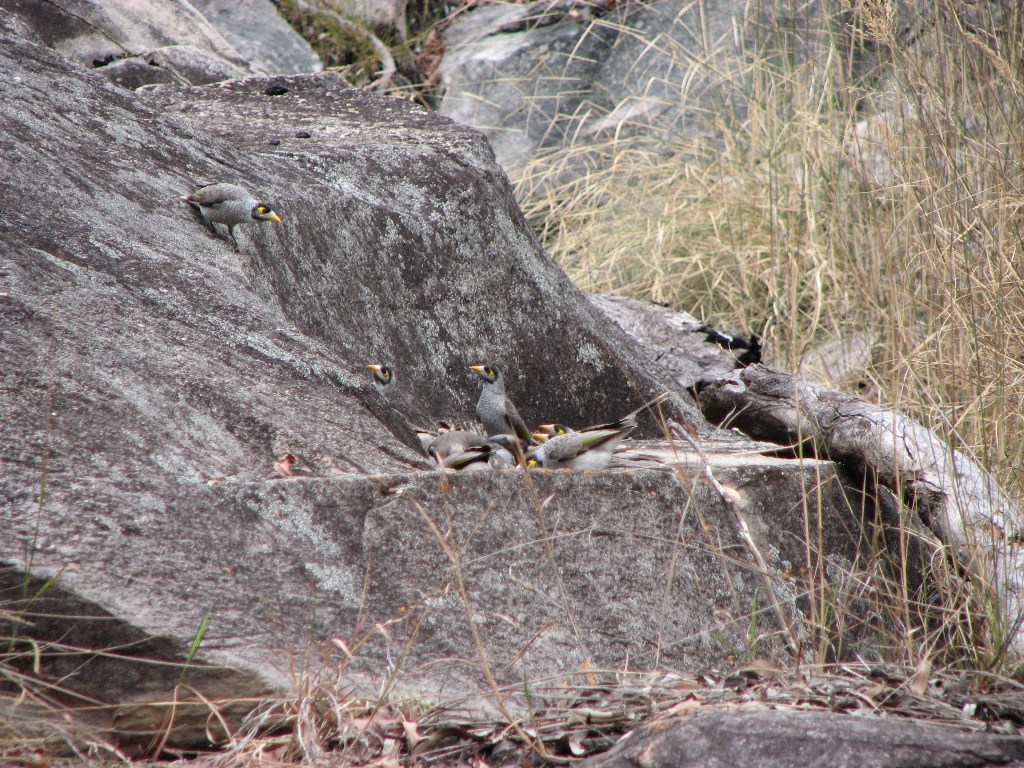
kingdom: Animalia
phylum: Chordata
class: Aves
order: Passeriformes
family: Meliphagidae
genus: Manorina
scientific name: Manorina melanocephala
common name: Noisy miner
